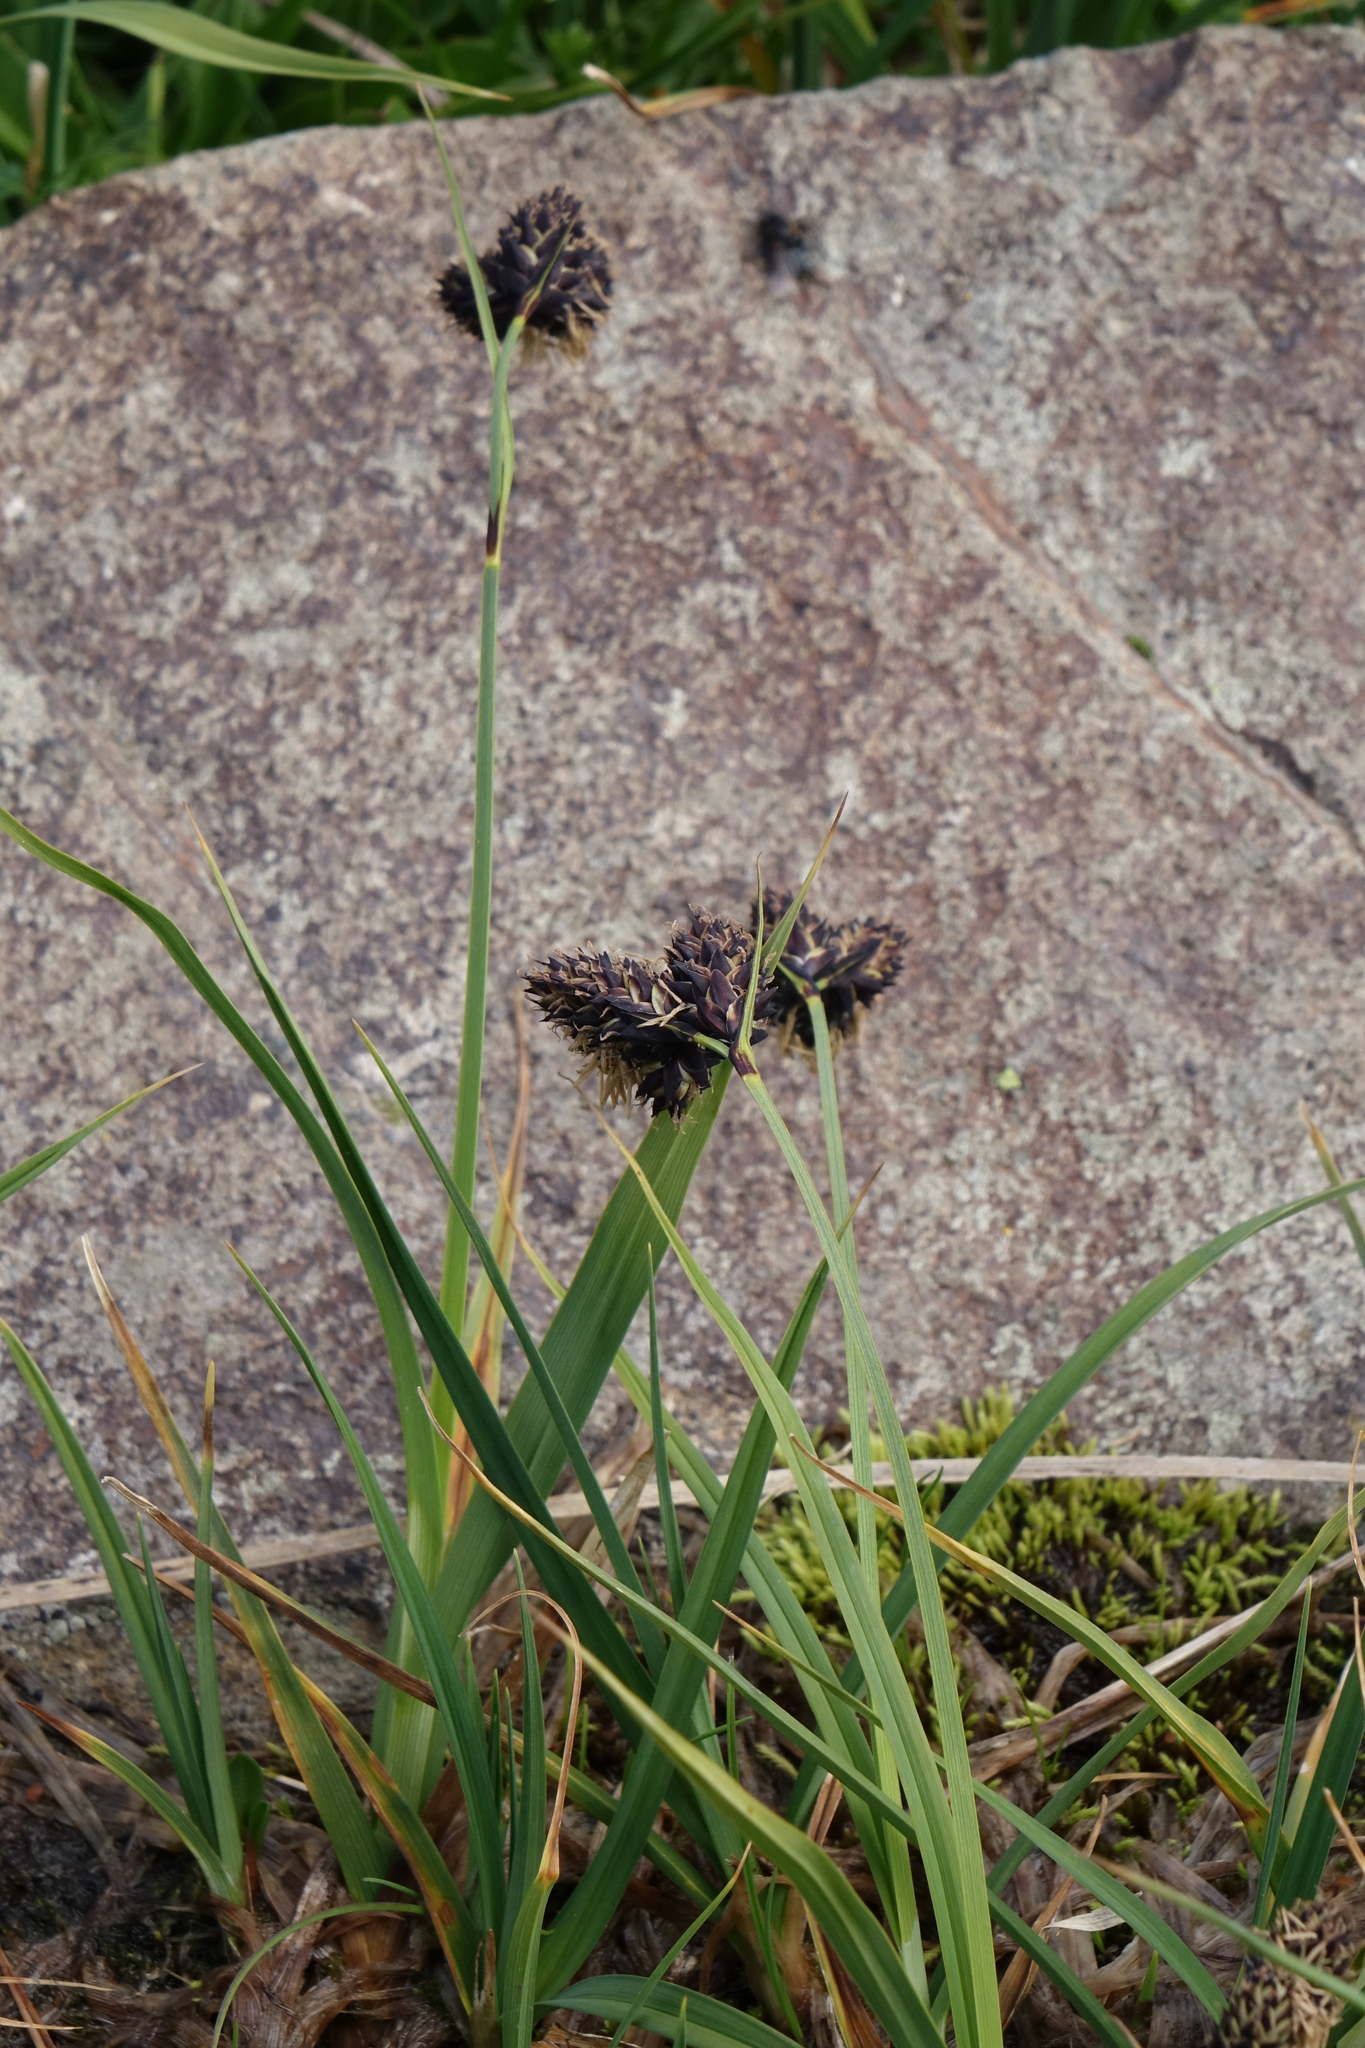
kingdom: Plantae
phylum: Tracheophyta
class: Liliopsida
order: Poales
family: Cyperaceae
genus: Carex
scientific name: Carex aterrima
